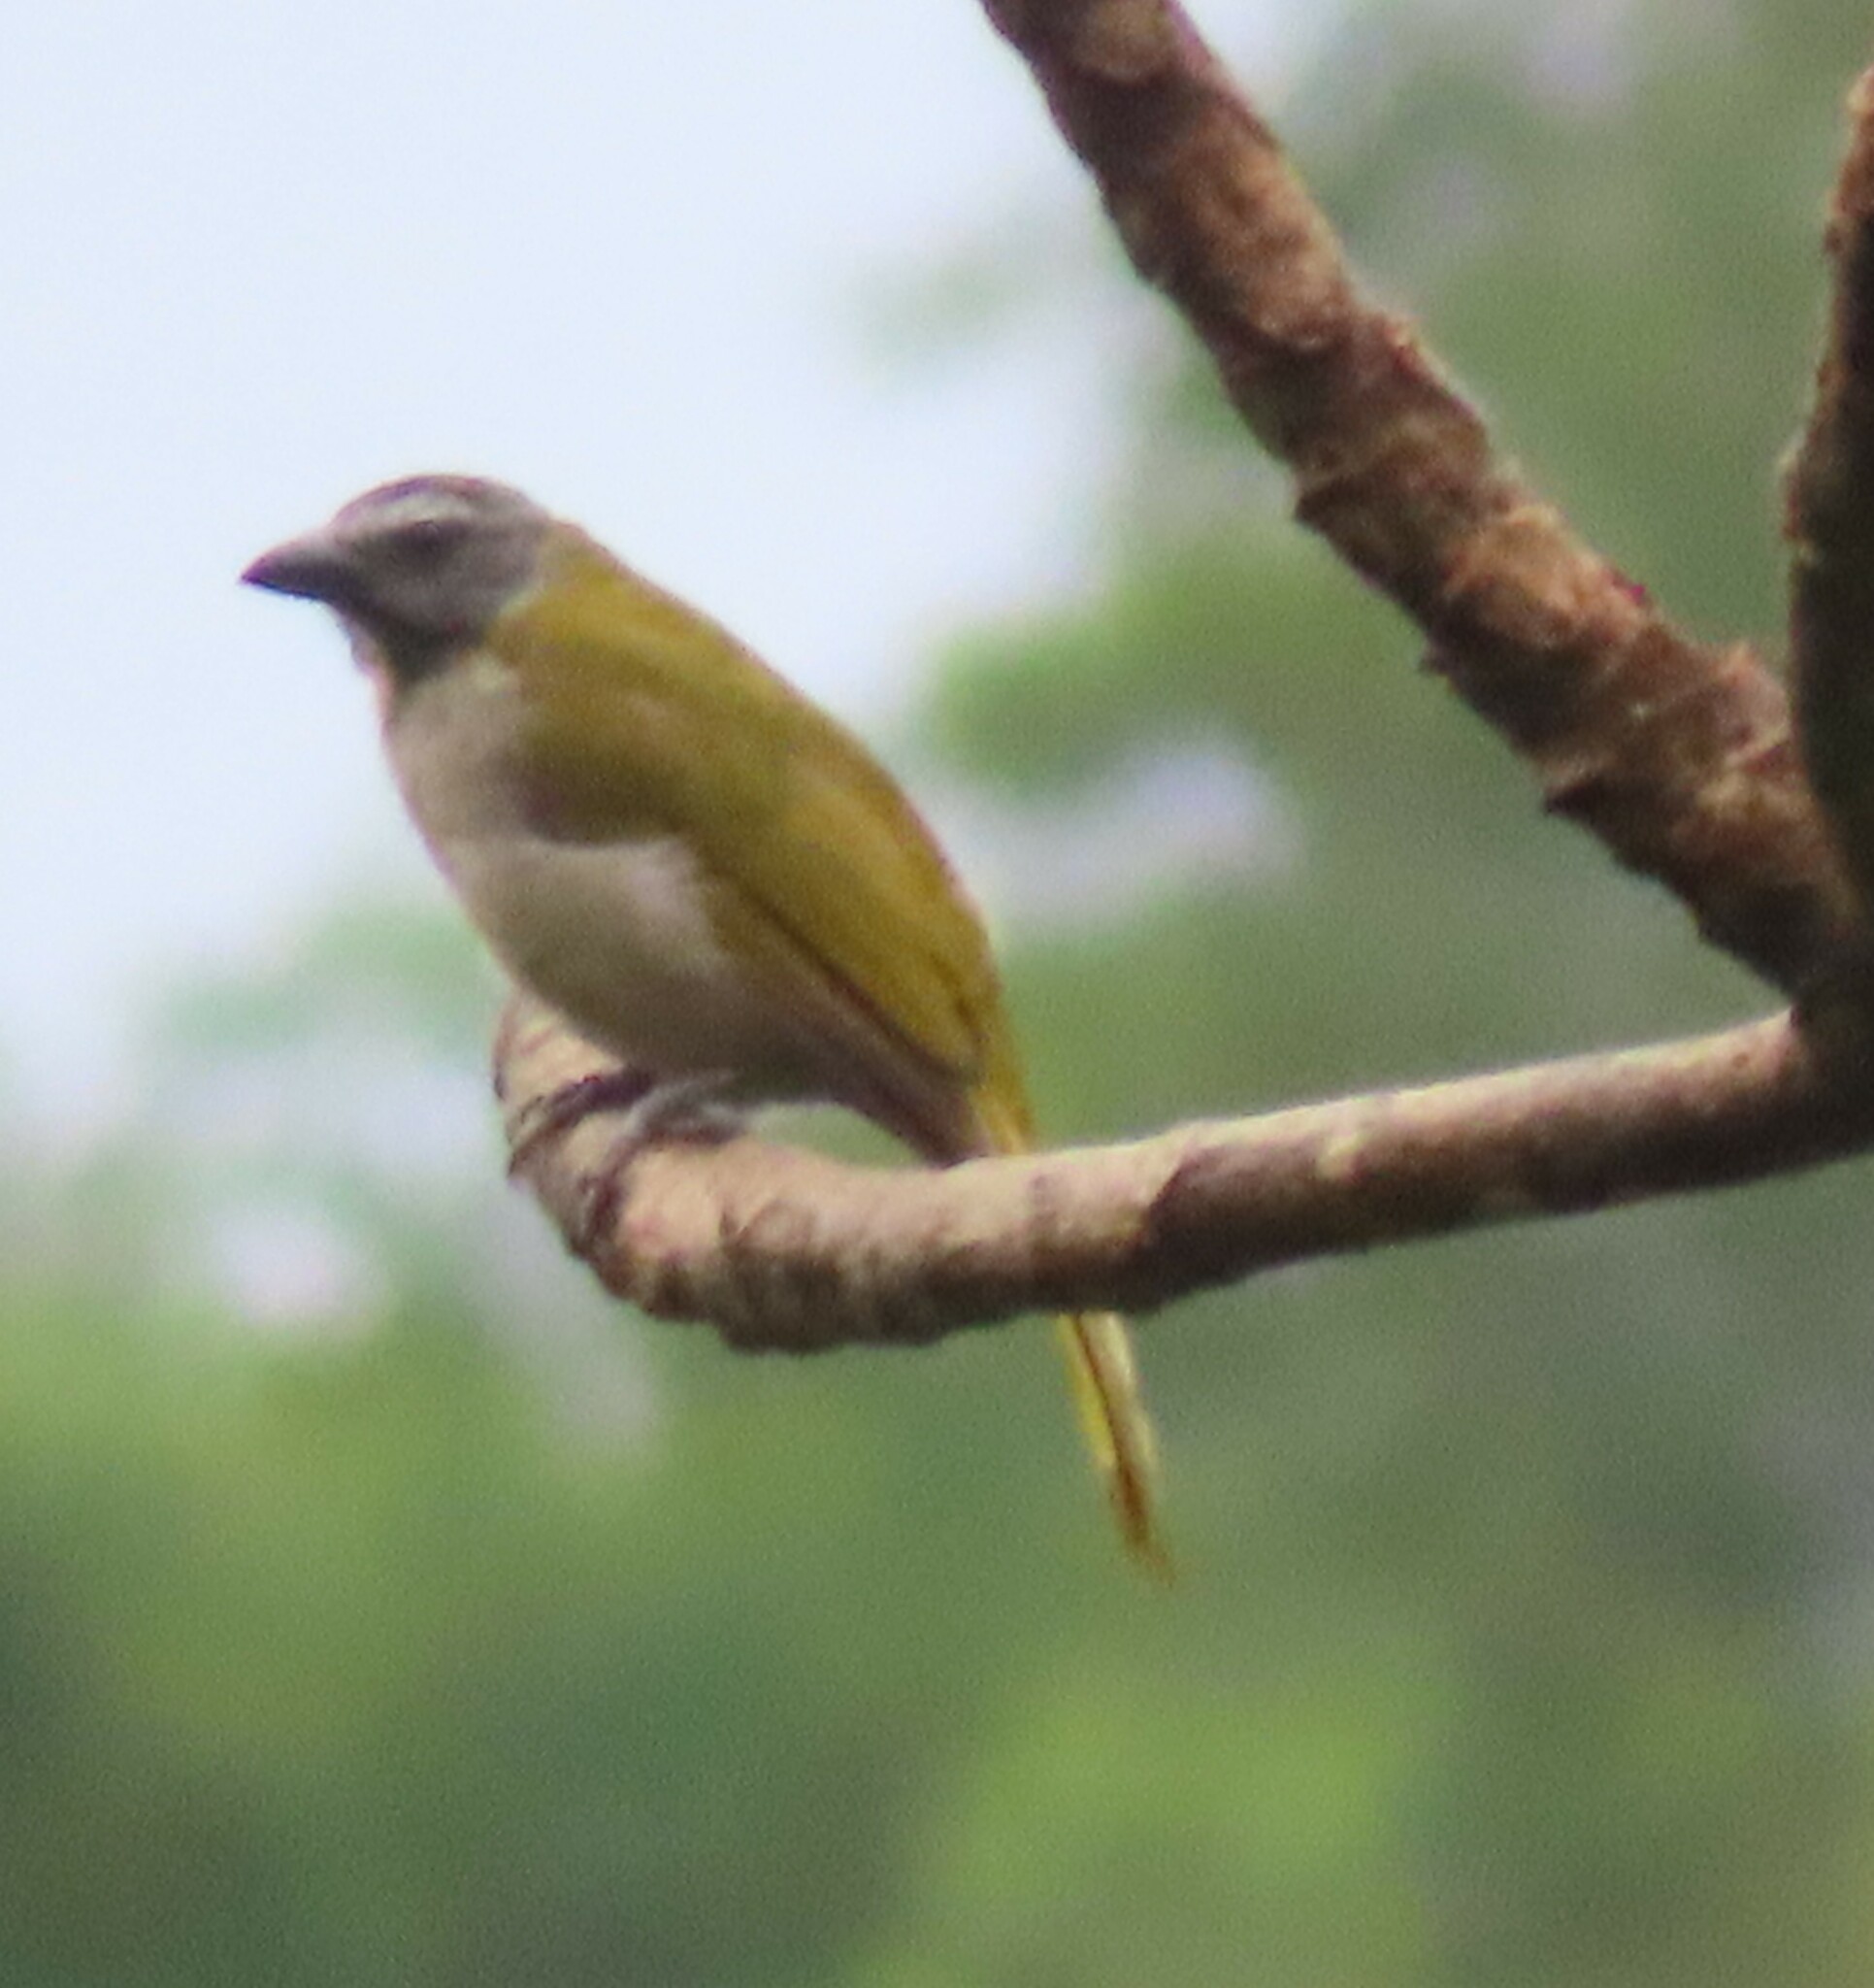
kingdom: Animalia
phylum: Chordata
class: Aves
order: Passeriformes
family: Thraupidae
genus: Saltator
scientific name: Saltator maximus
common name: Buff-throated saltator
